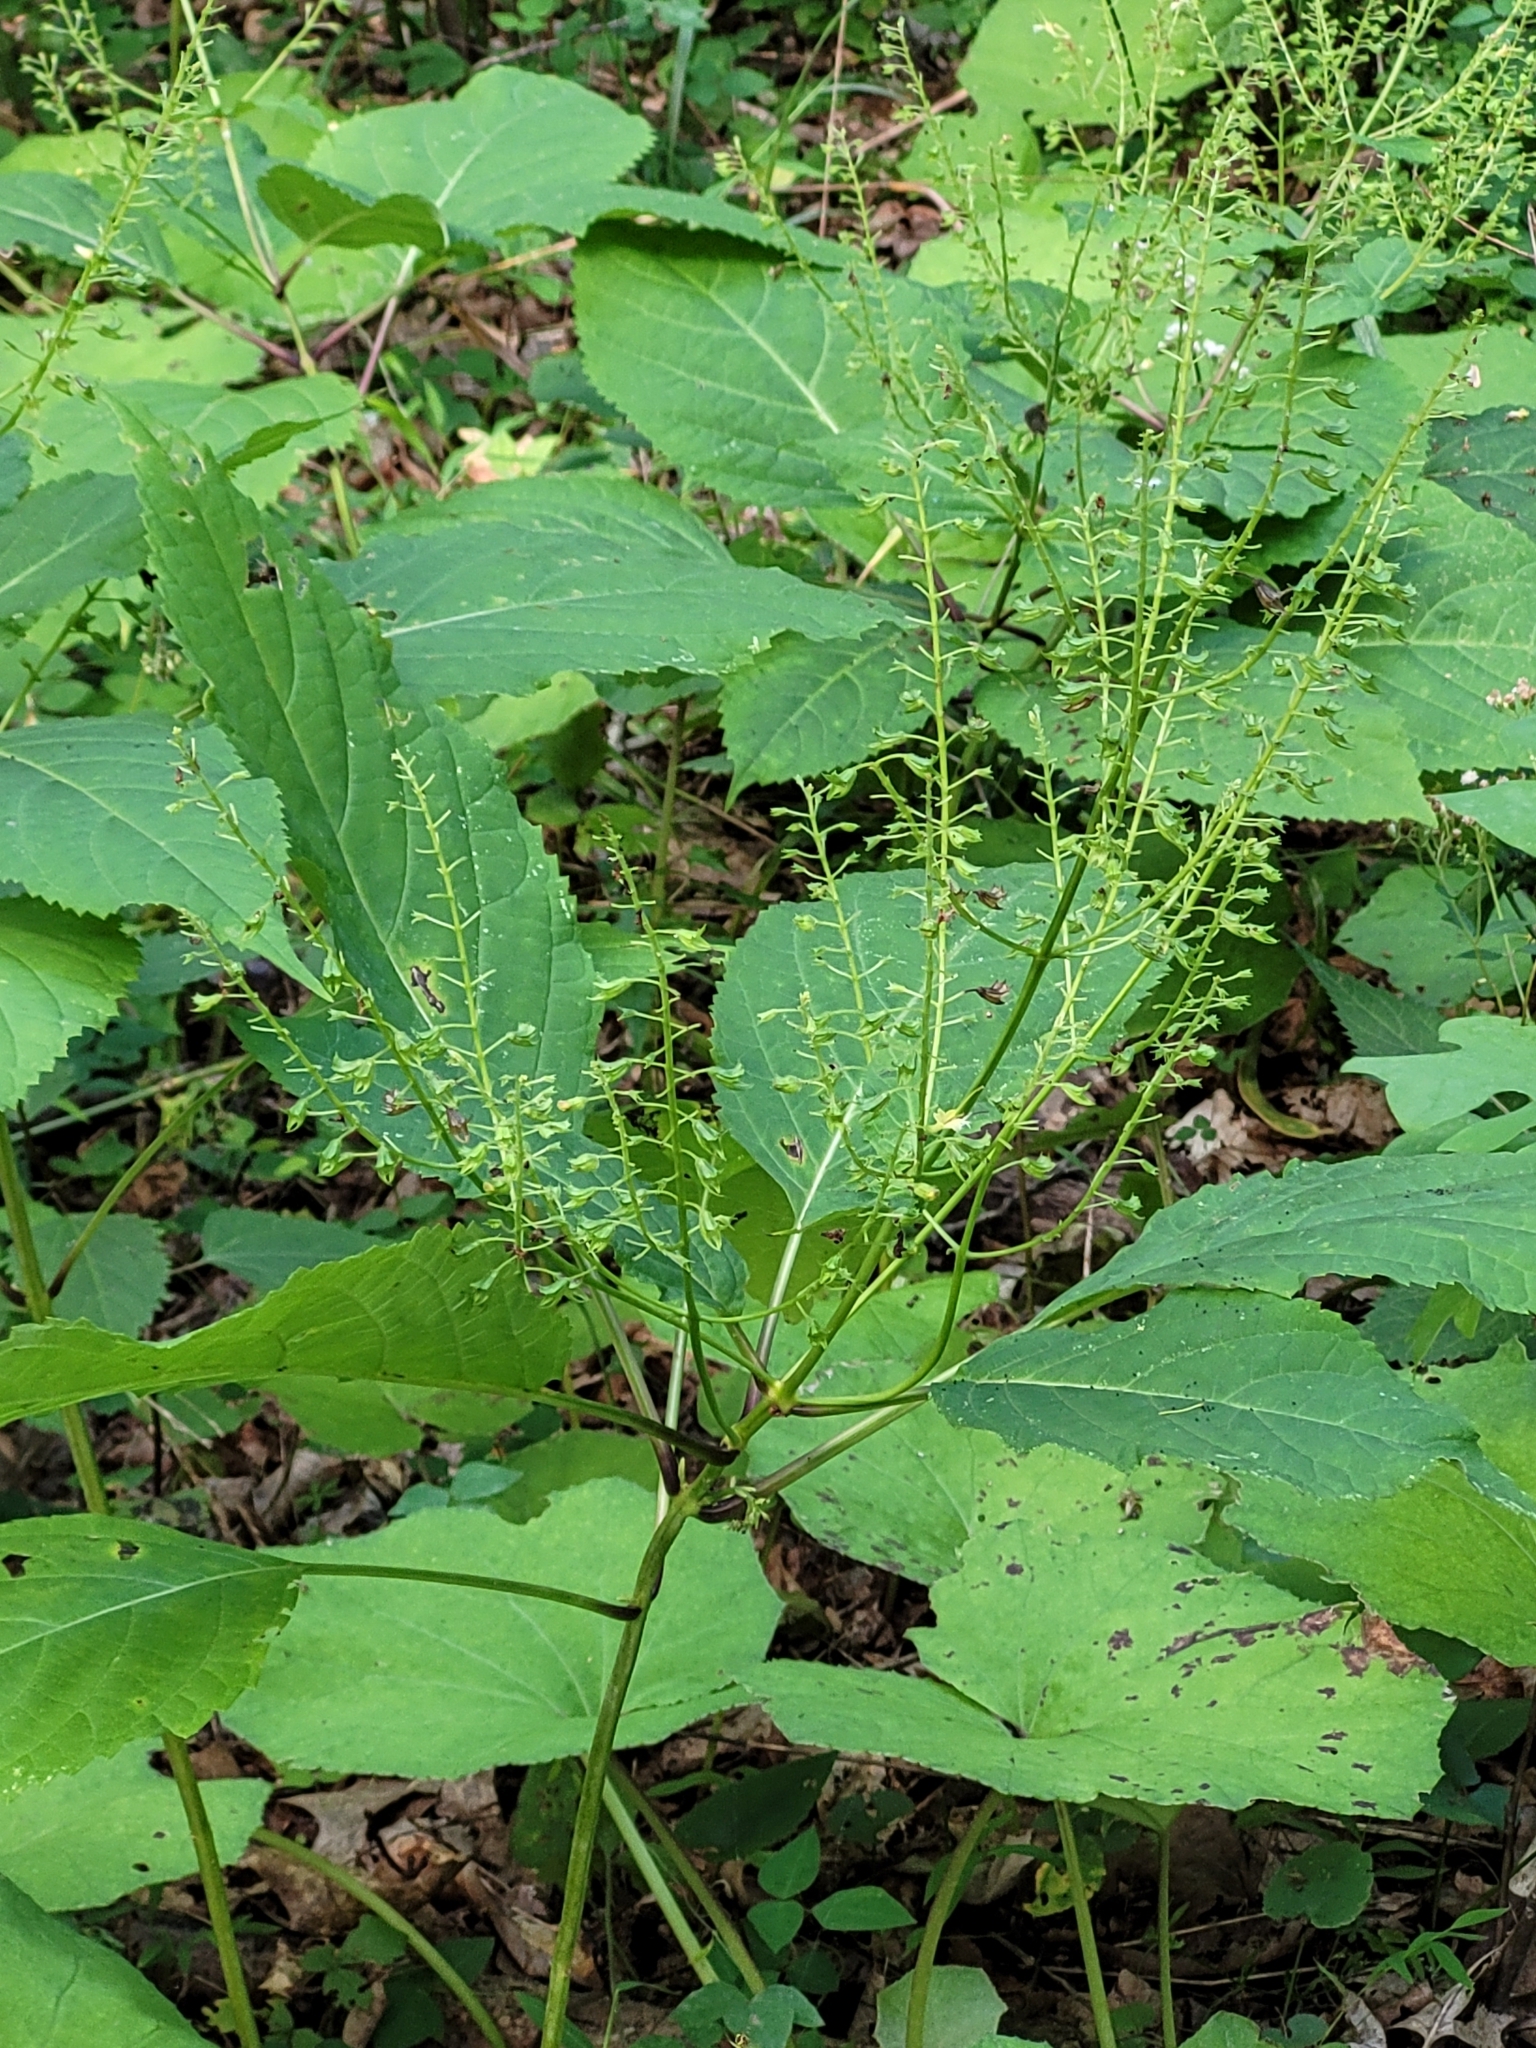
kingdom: Plantae
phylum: Tracheophyta
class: Magnoliopsida
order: Lamiales
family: Lamiaceae
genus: Collinsonia
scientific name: Collinsonia canadensis
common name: Northern horsebalm
